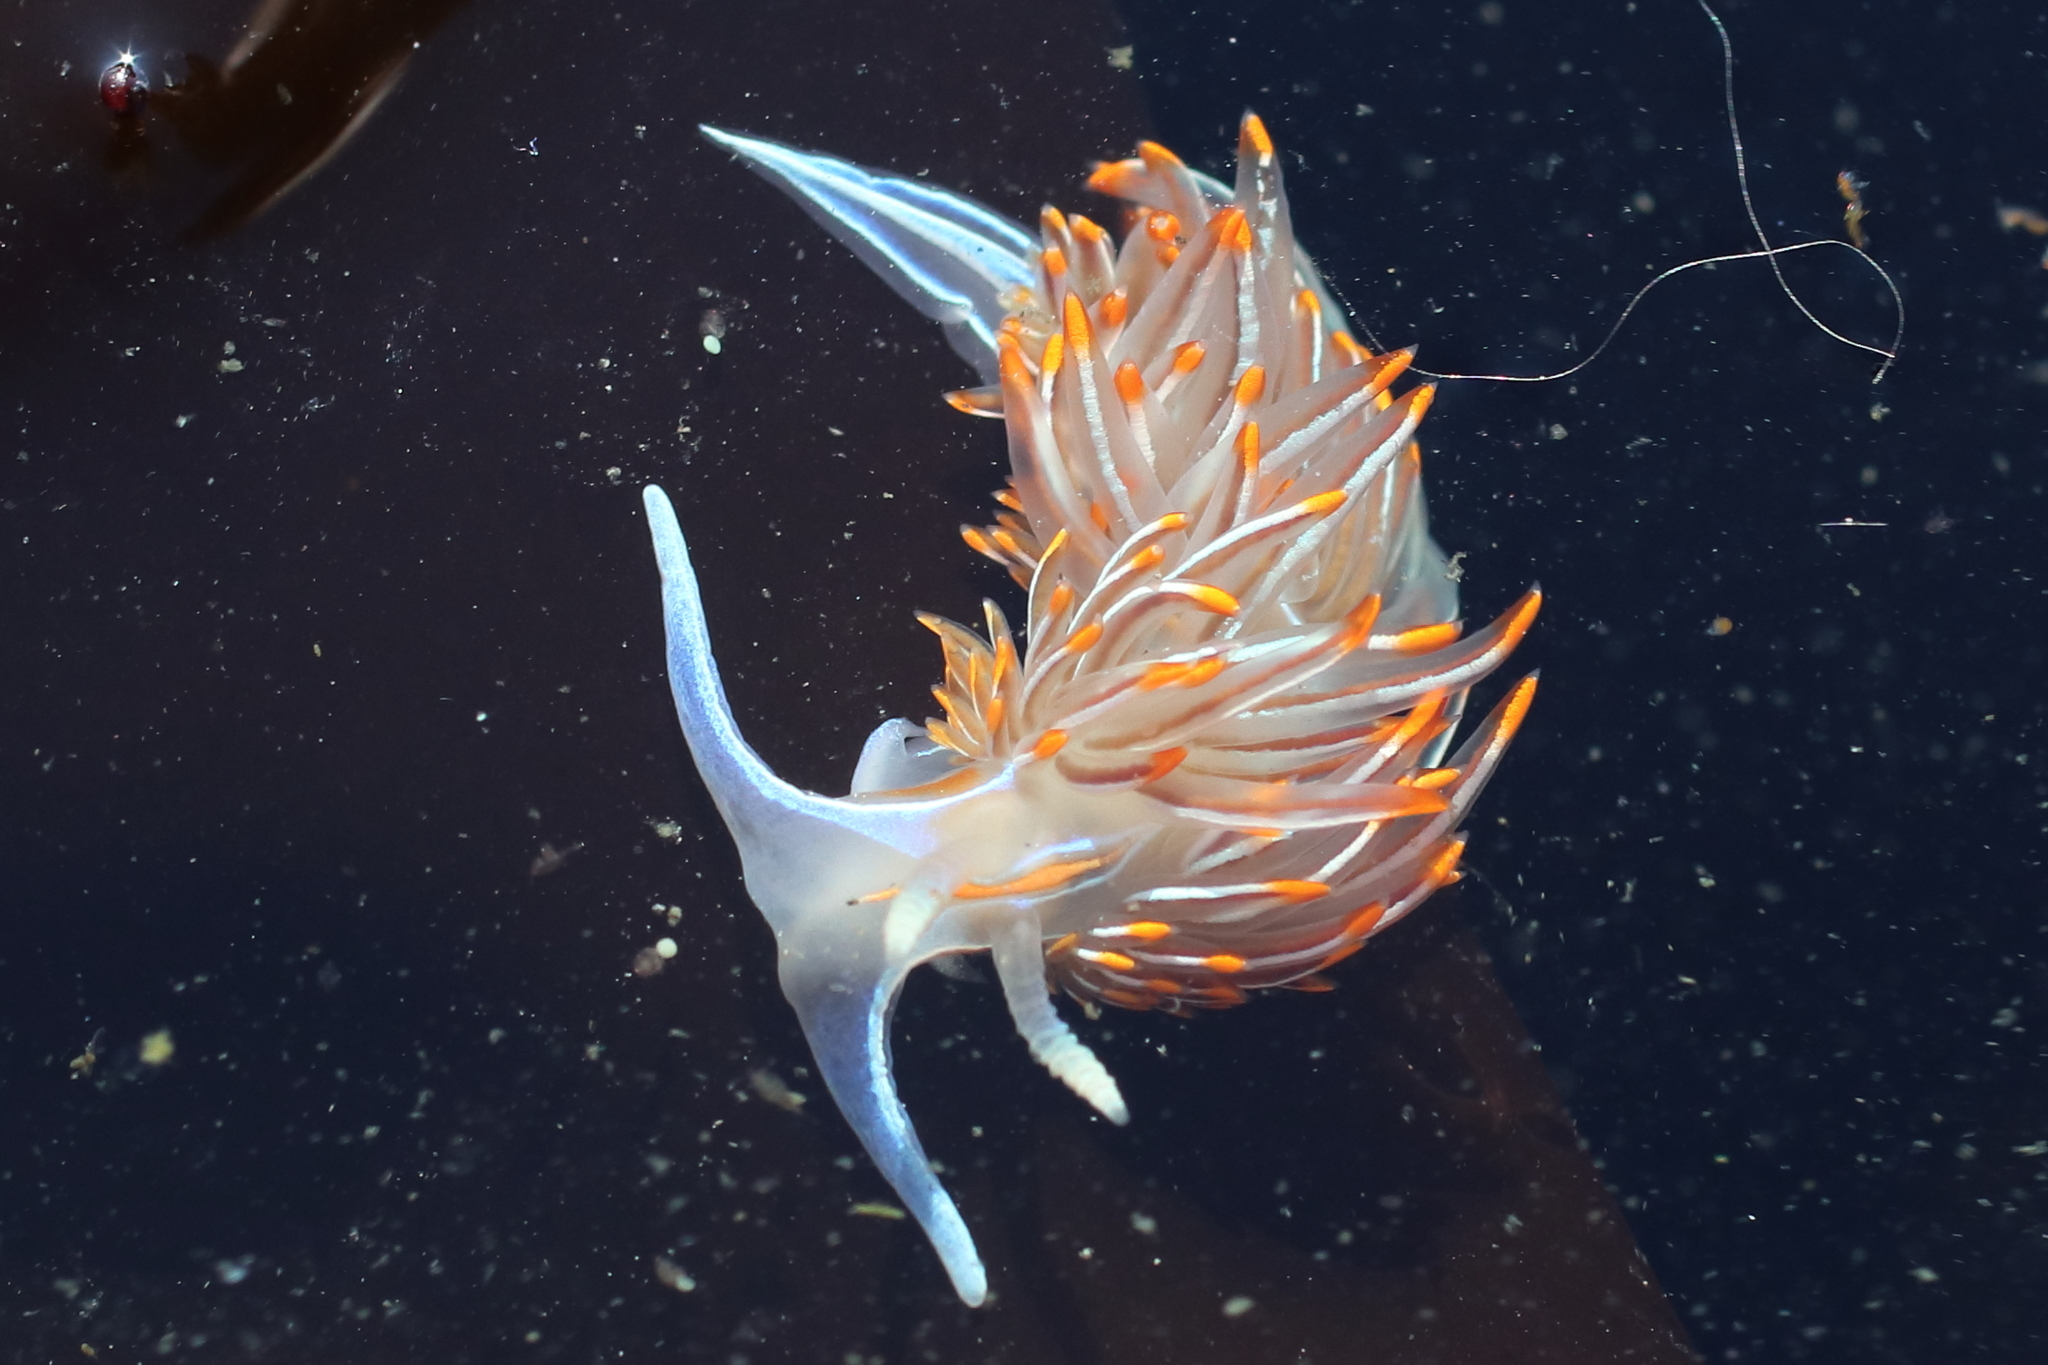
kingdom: Animalia
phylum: Mollusca
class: Gastropoda
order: Nudibranchia
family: Myrrhinidae
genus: Hermissenda
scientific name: Hermissenda crassicornis
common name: Hermissenda
